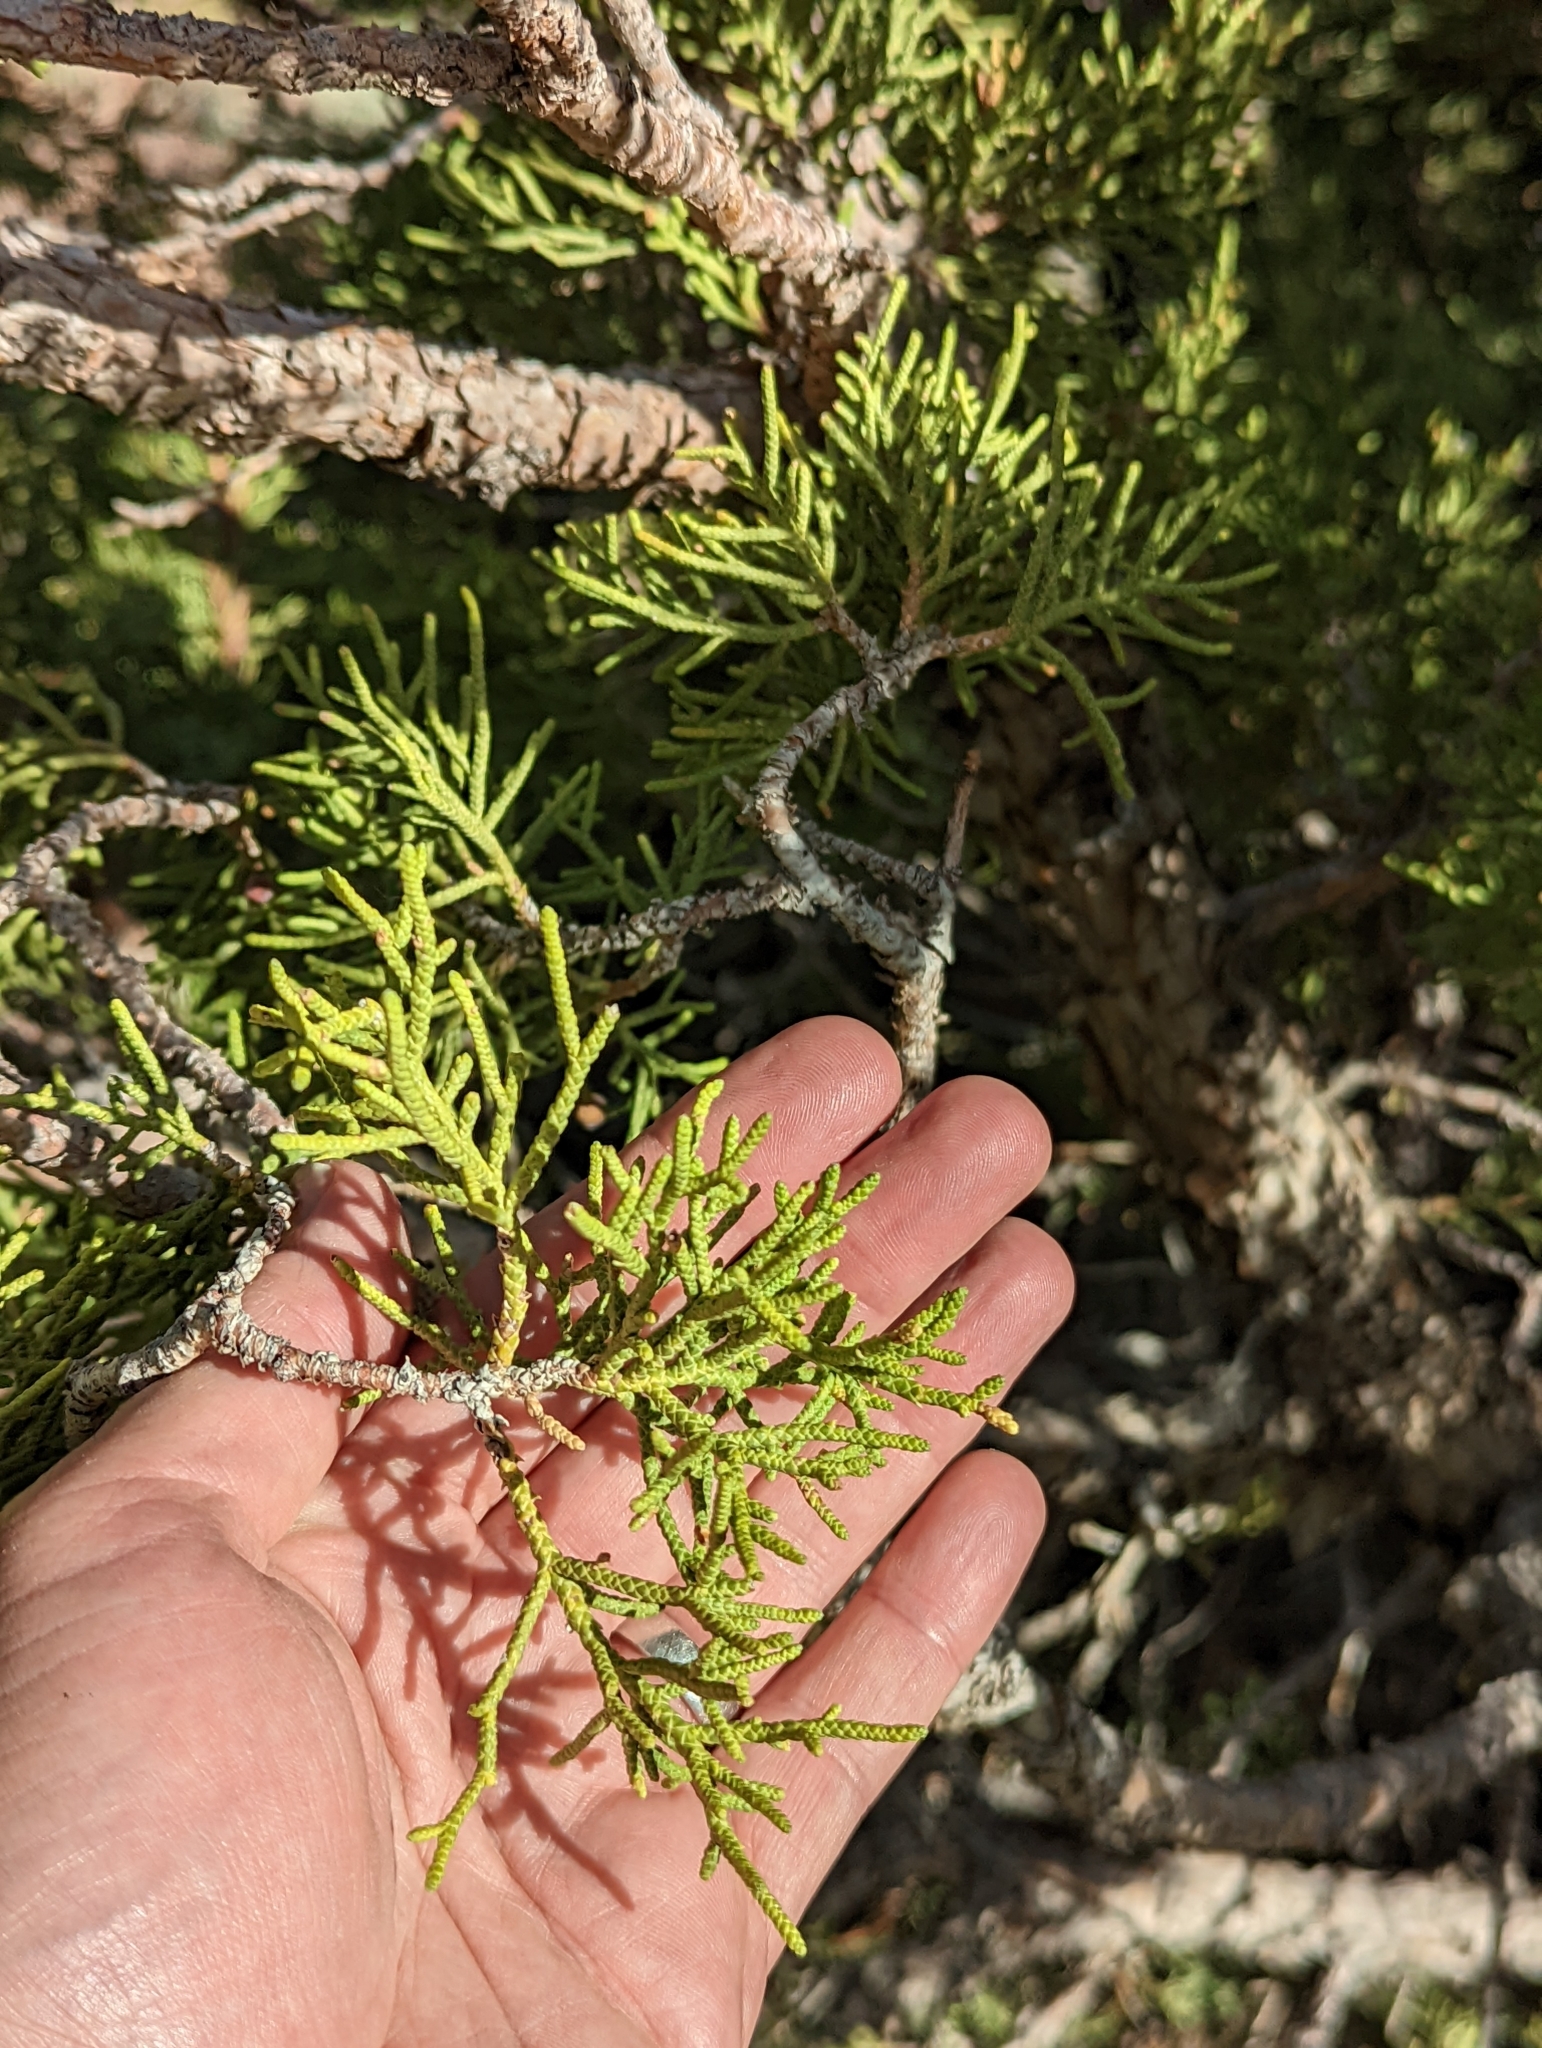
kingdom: Plantae
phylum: Tracheophyta
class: Pinopsida
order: Pinales
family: Cupressaceae
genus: Juniperus
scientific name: Juniperus osteosperma
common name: Utah juniper
